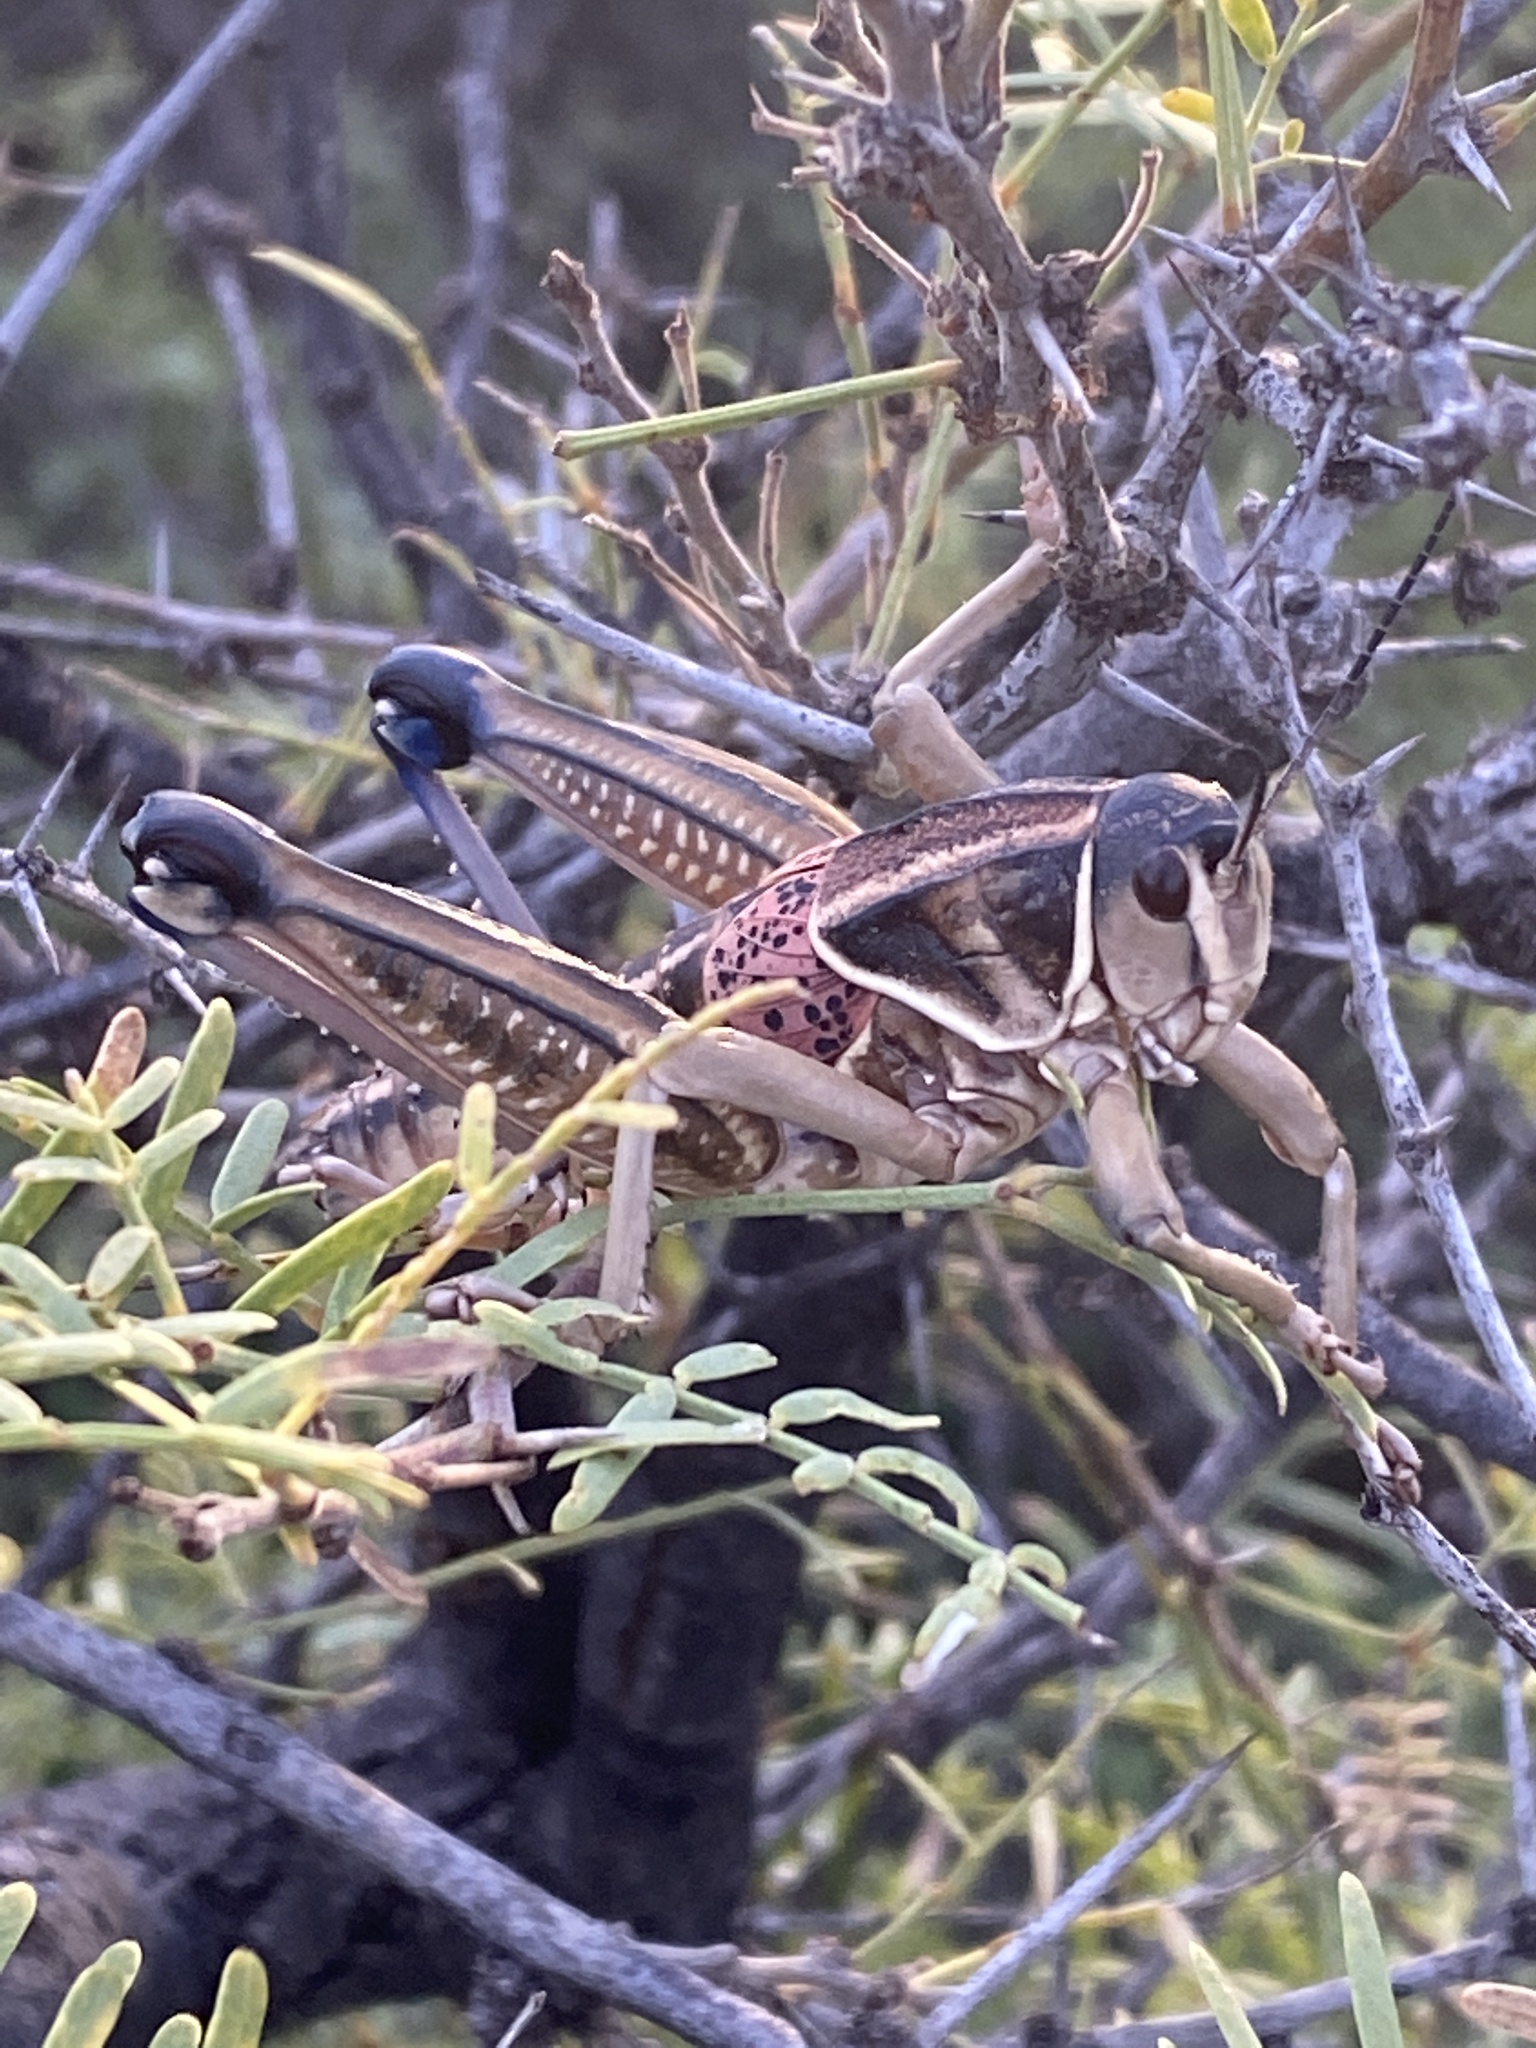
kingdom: Animalia
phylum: Arthropoda
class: Insecta
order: Orthoptera
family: Romaleidae
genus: Brachystola
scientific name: Brachystola magna
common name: Plains lubber grasshopper
